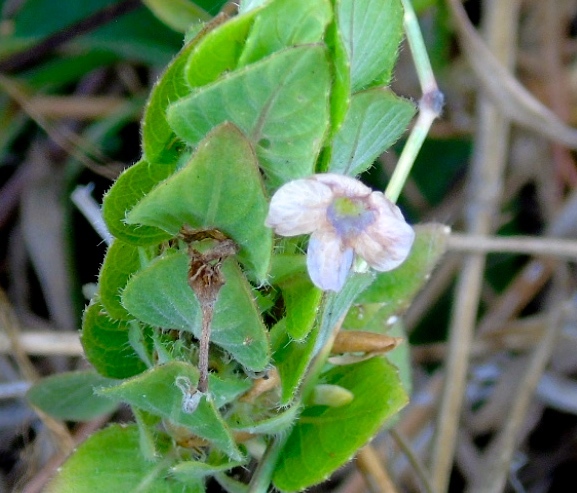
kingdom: Plantae
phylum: Tracheophyta
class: Magnoliopsida
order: Lamiales
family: Acanthaceae
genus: Ruellia
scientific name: Ruellia blechum
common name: Browne's blechum
